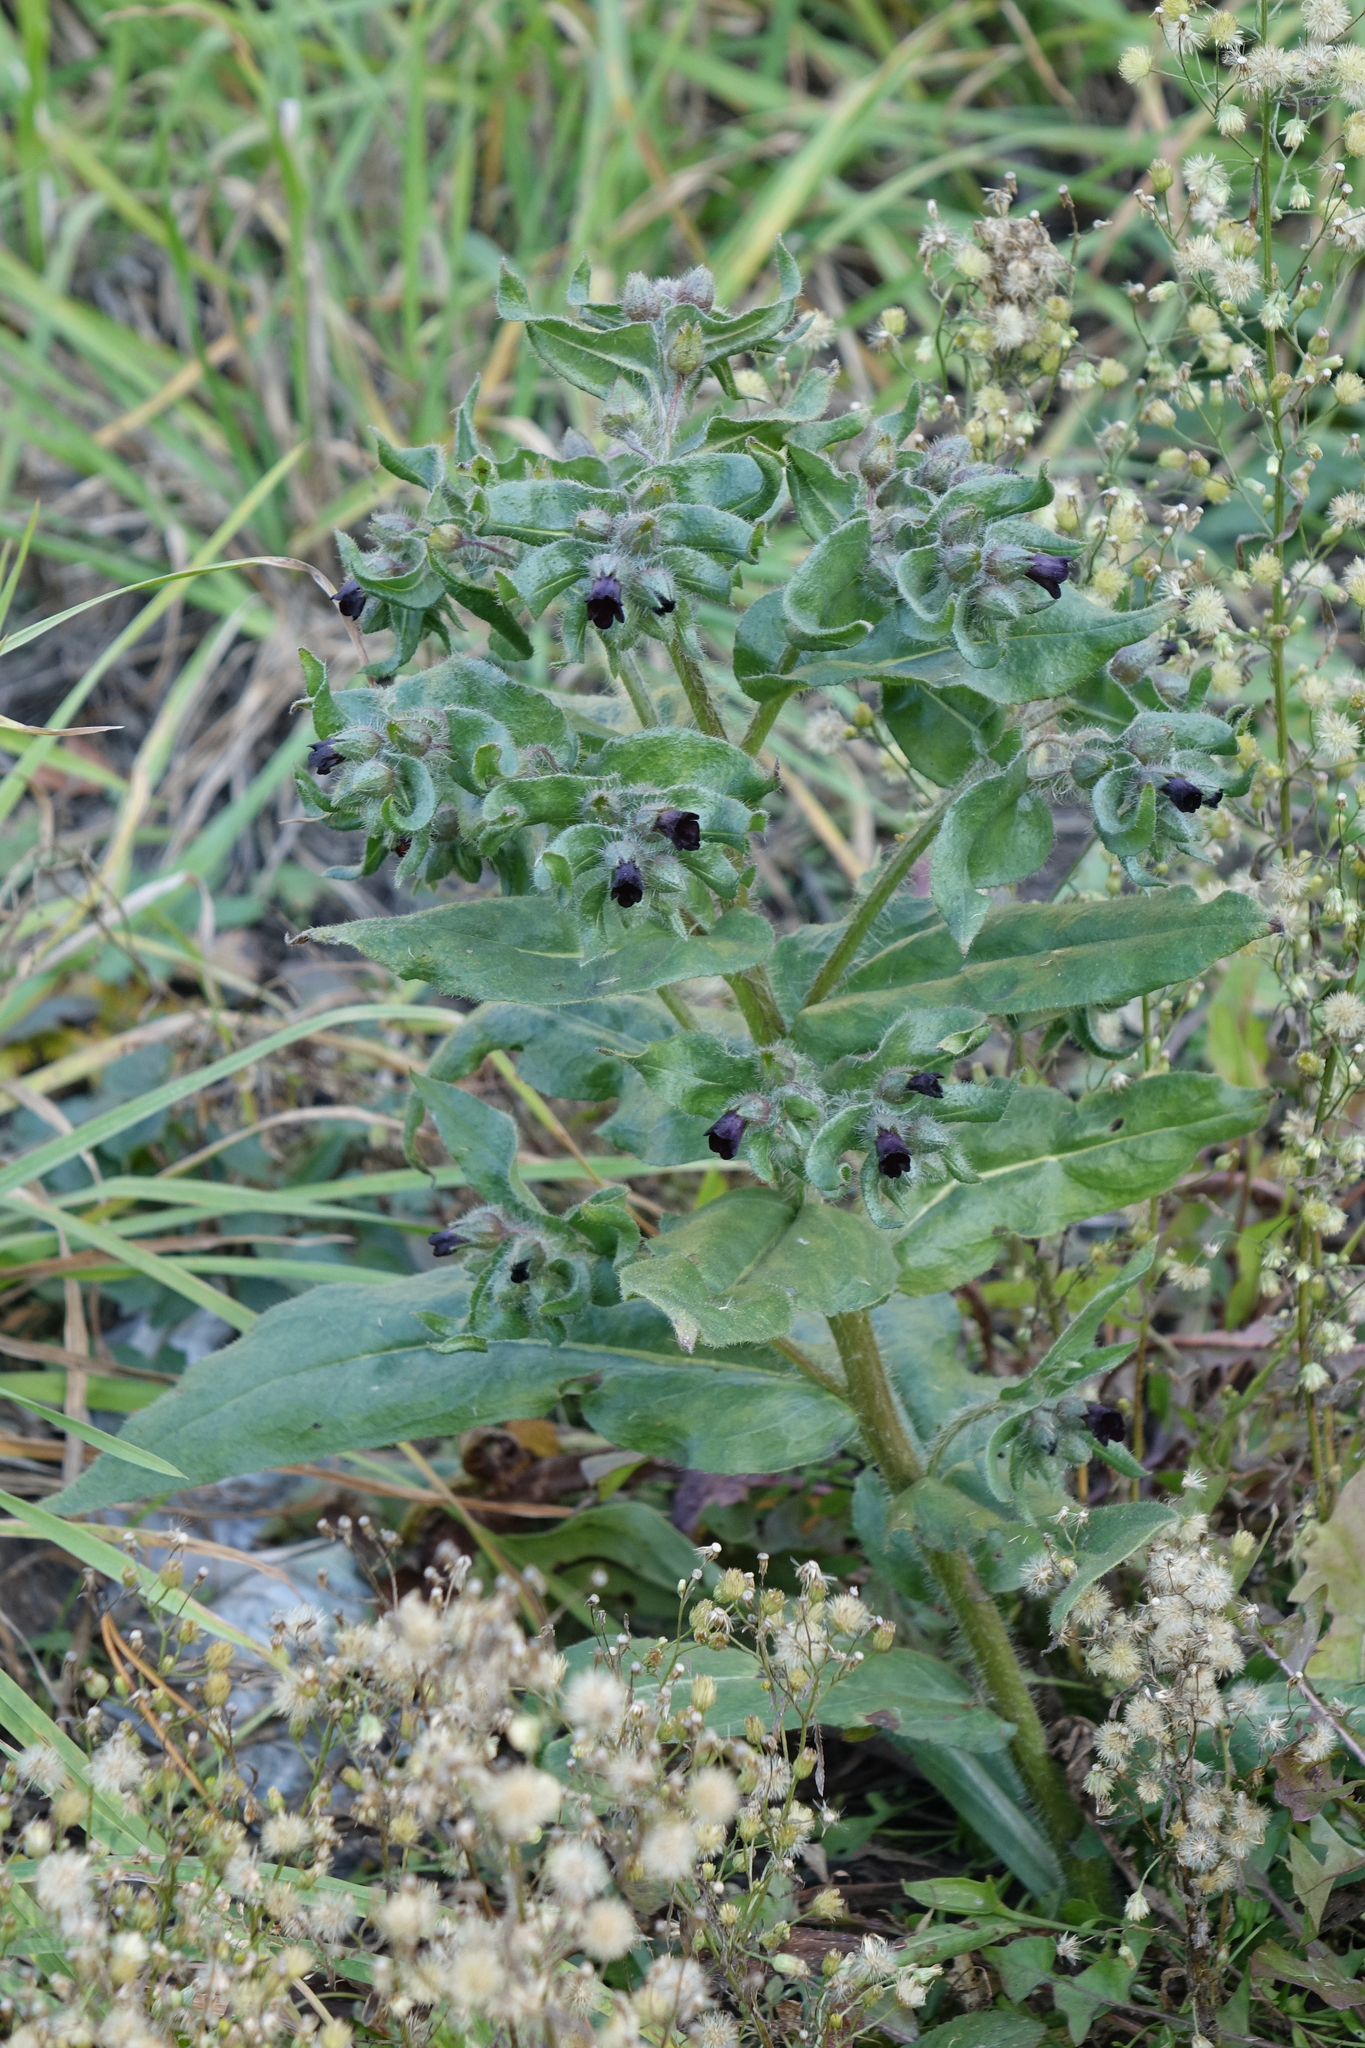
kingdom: Plantae
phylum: Tracheophyta
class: Magnoliopsida
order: Boraginales
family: Boraginaceae
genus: Nonea
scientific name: Nonea pulla
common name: Brown nonea
